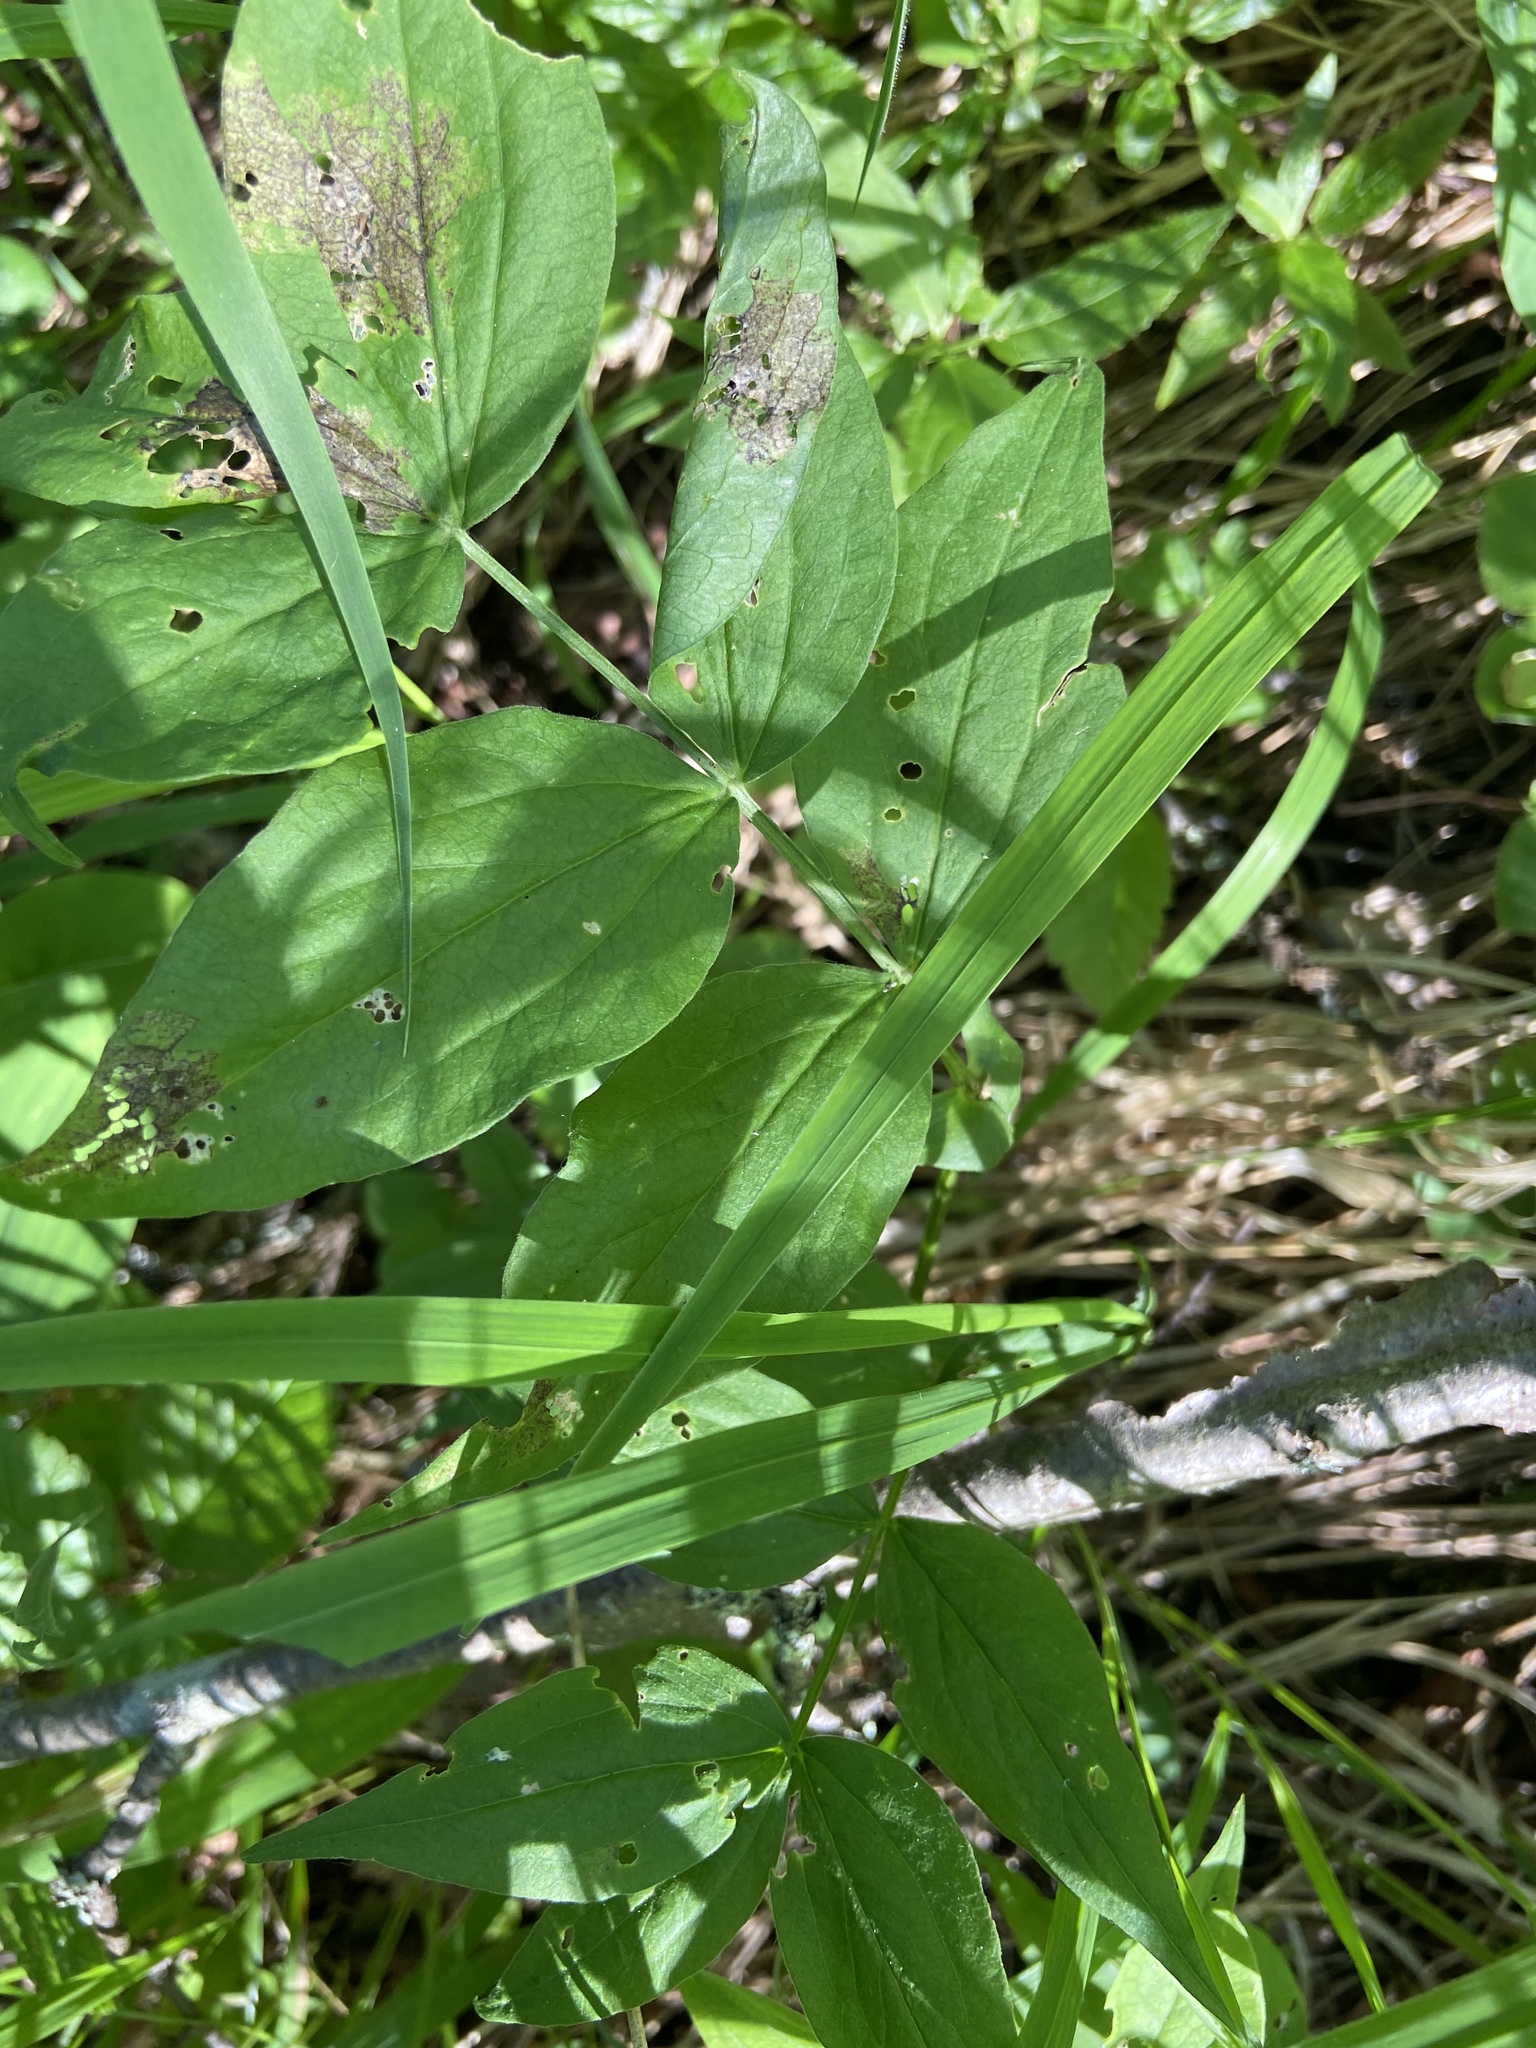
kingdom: Plantae
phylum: Tracheophyta
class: Magnoliopsida
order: Fabales
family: Fabaceae
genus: Lathyrus
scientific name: Lathyrus vernus
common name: Spring pea
